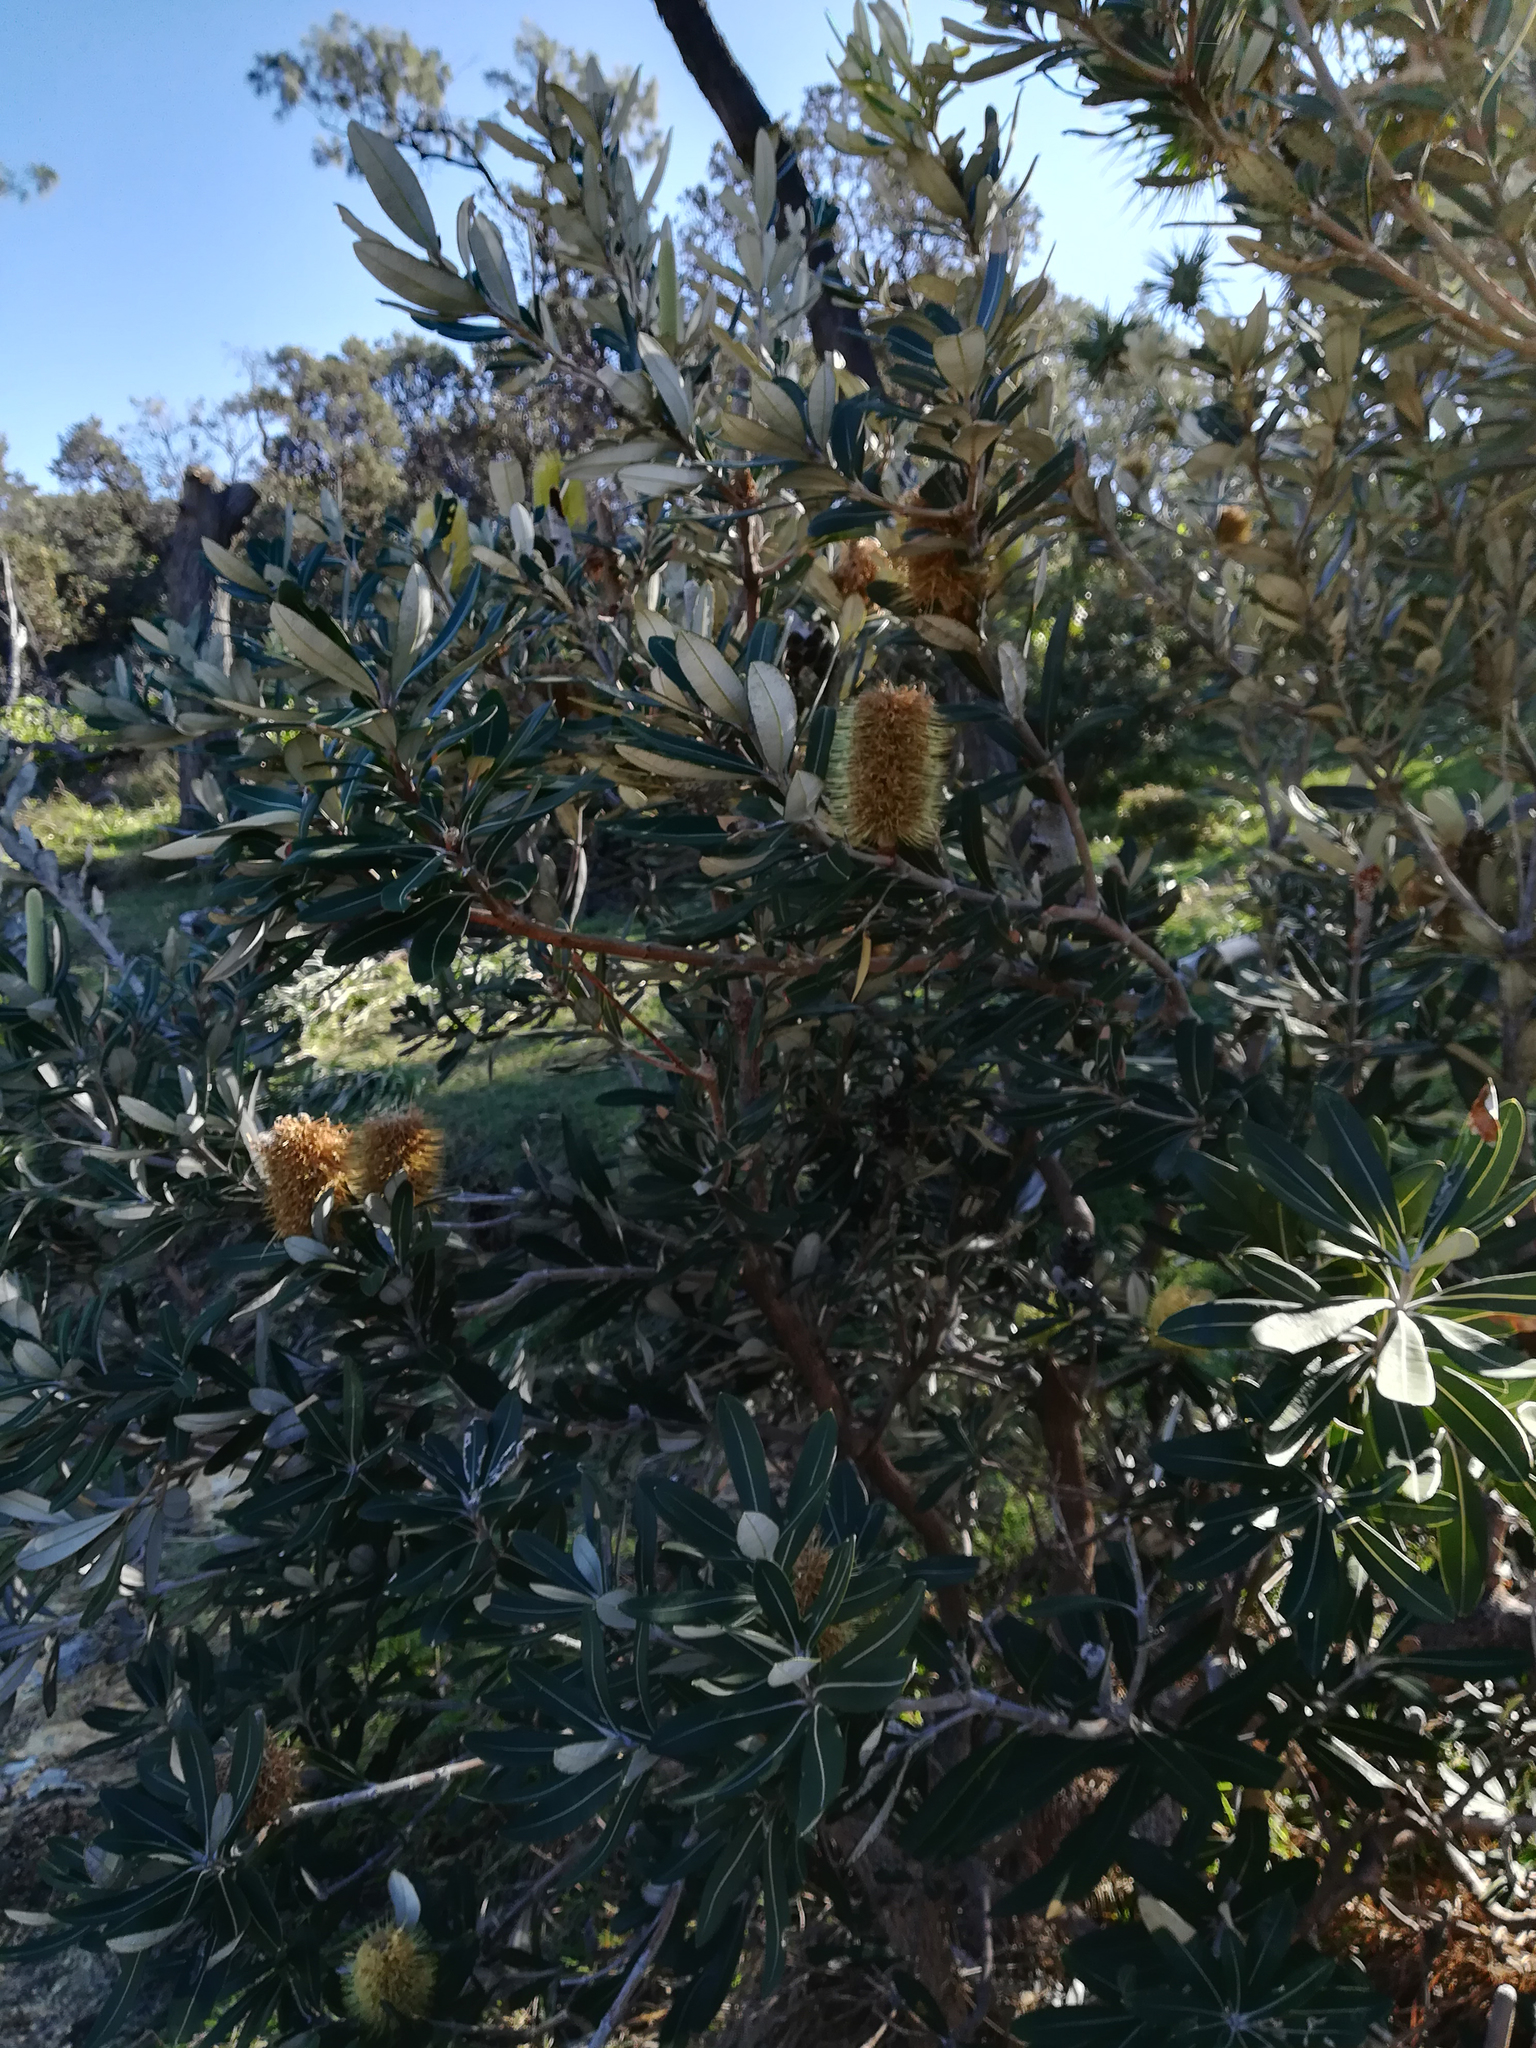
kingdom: Plantae
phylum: Tracheophyta
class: Magnoliopsida
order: Proteales
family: Proteaceae
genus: Banksia
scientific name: Banksia integrifolia
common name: White-honeysuckle
